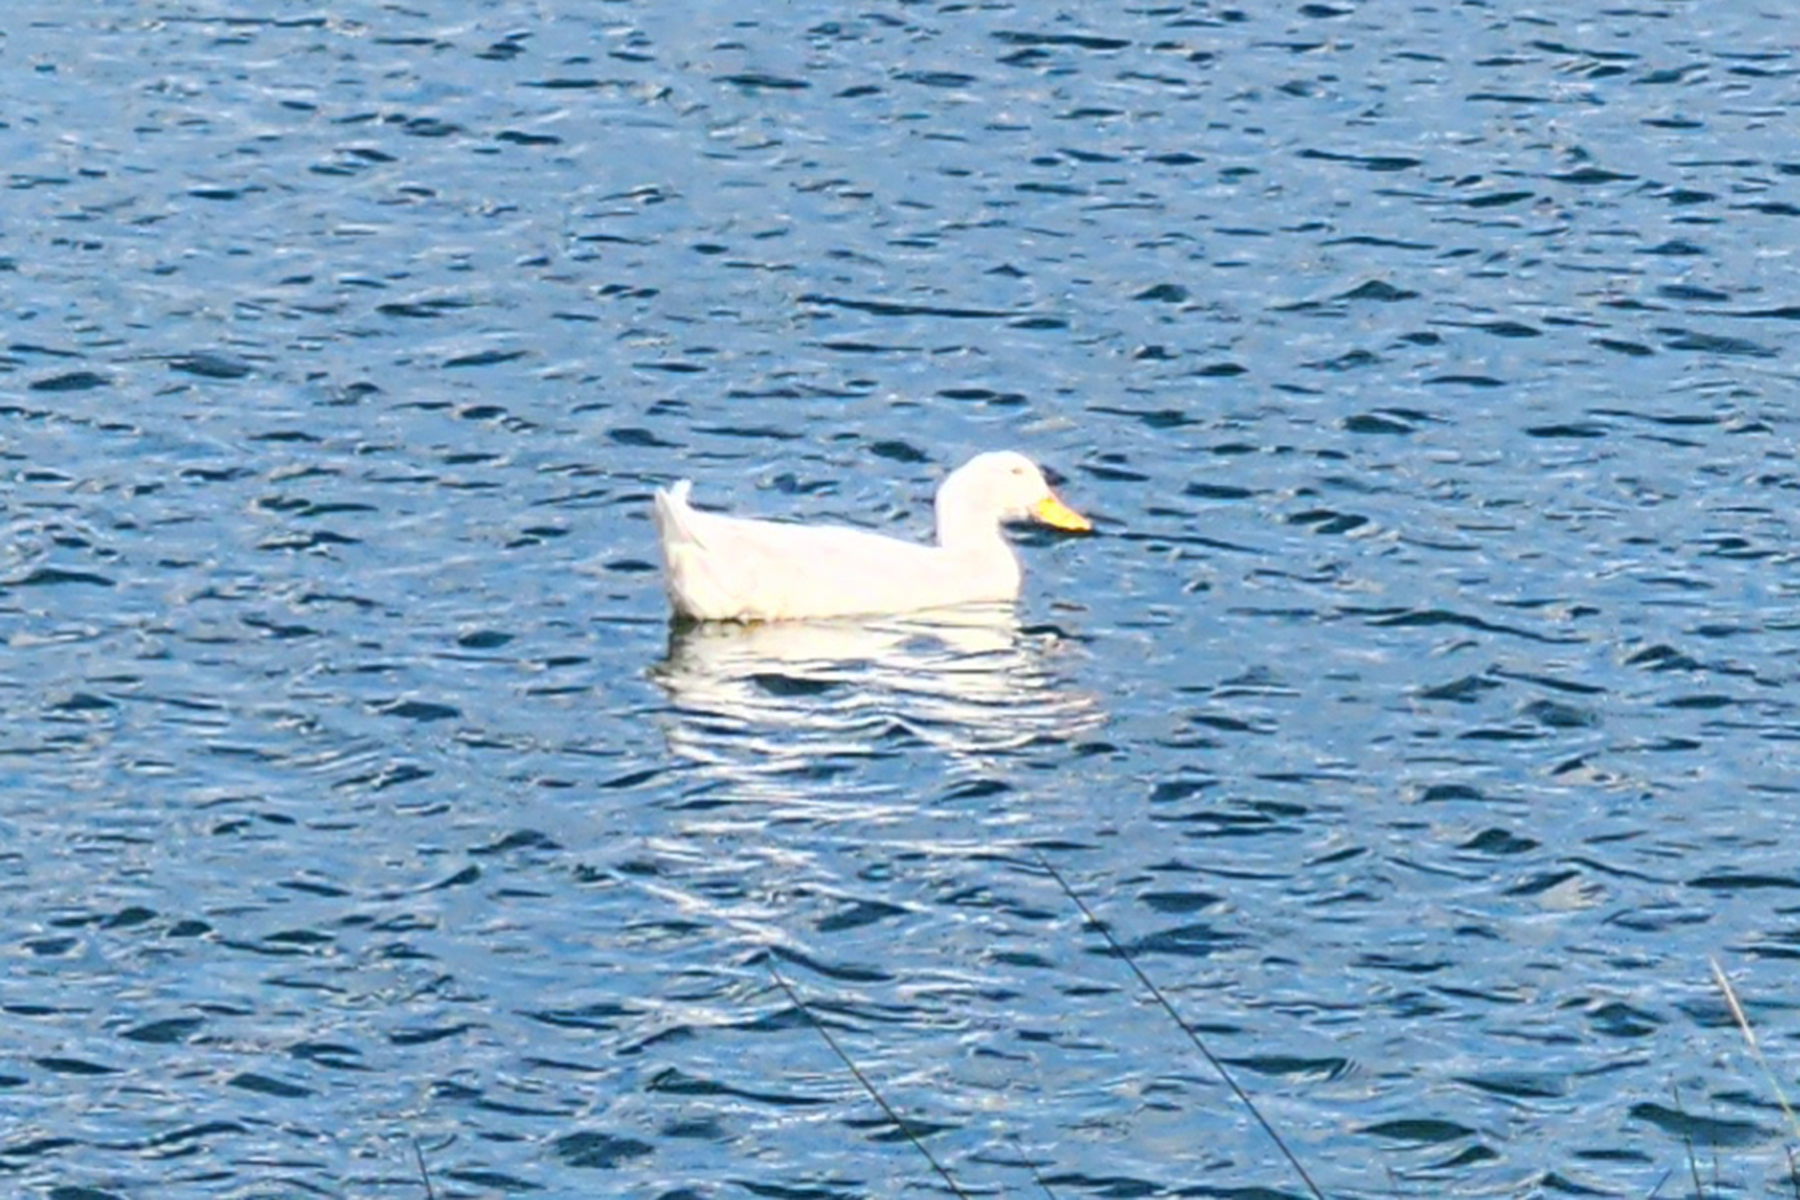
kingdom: Animalia
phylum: Chordata
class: Aves
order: Anseriformes
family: Anatidae
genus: Anas
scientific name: Anas platyrhynchos
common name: Mallard
